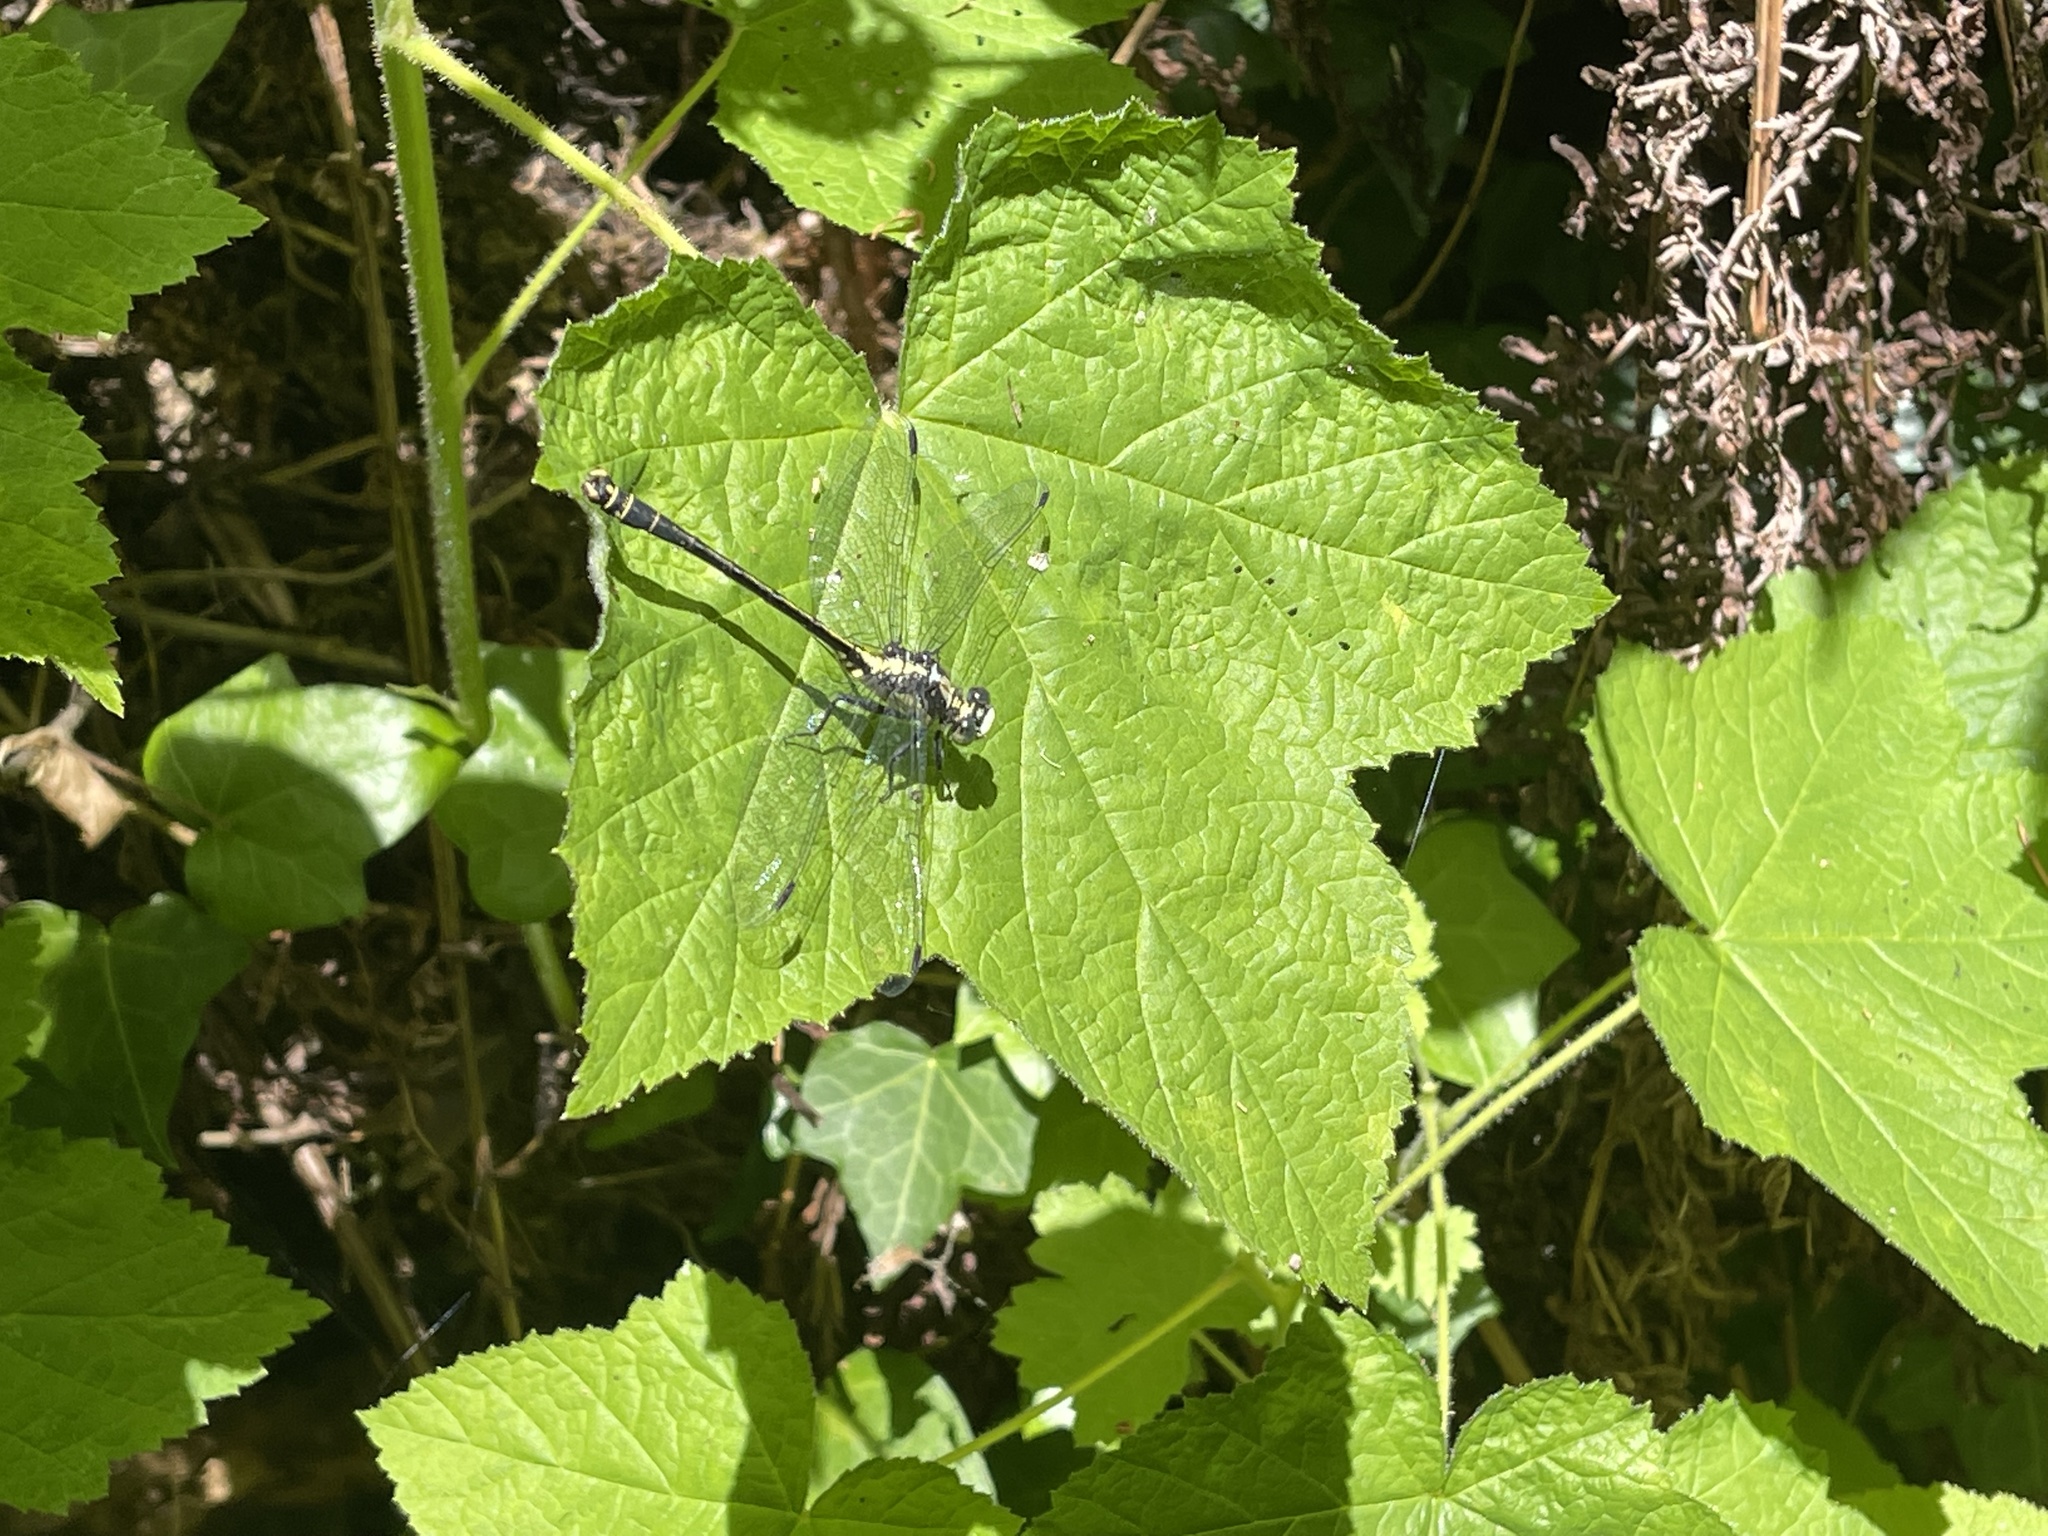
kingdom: Animalia
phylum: Arthropoda
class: Insecta
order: Odonata
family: Gomphidae
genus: Octogomphus
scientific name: Octogomphus specularis
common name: Grappletail
